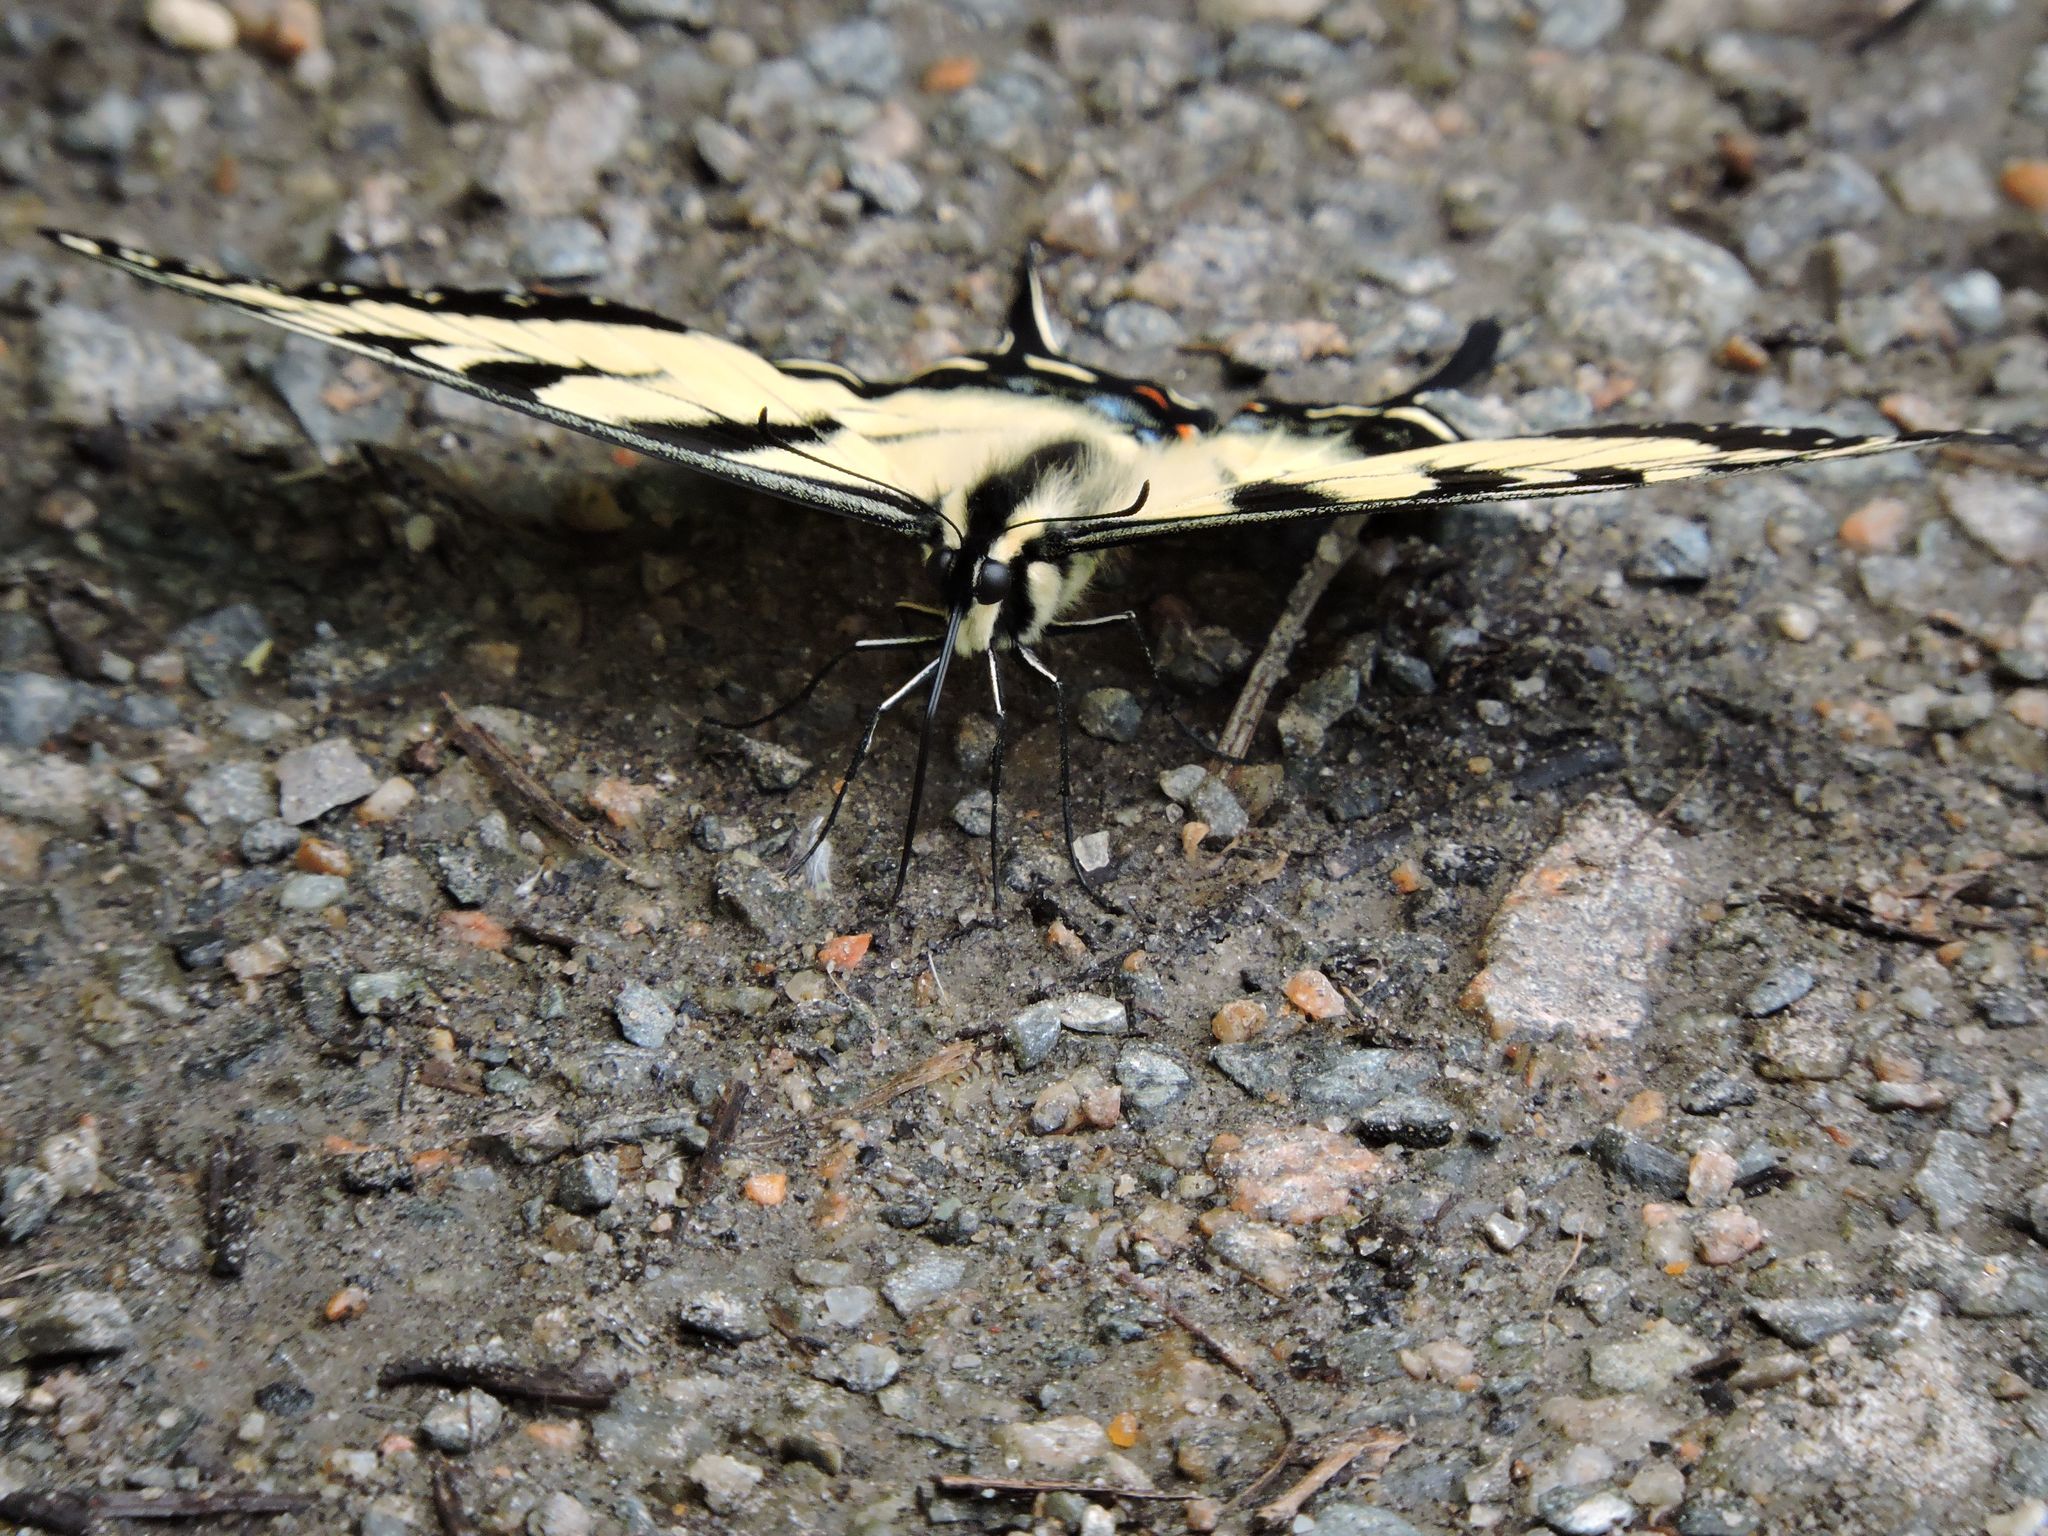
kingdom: Animalia
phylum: Arthropoda
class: Insecta
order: Lepidoptera
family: Papilionidae
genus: Papilio
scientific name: Papilio glaucus
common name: Tiger swallowtail
